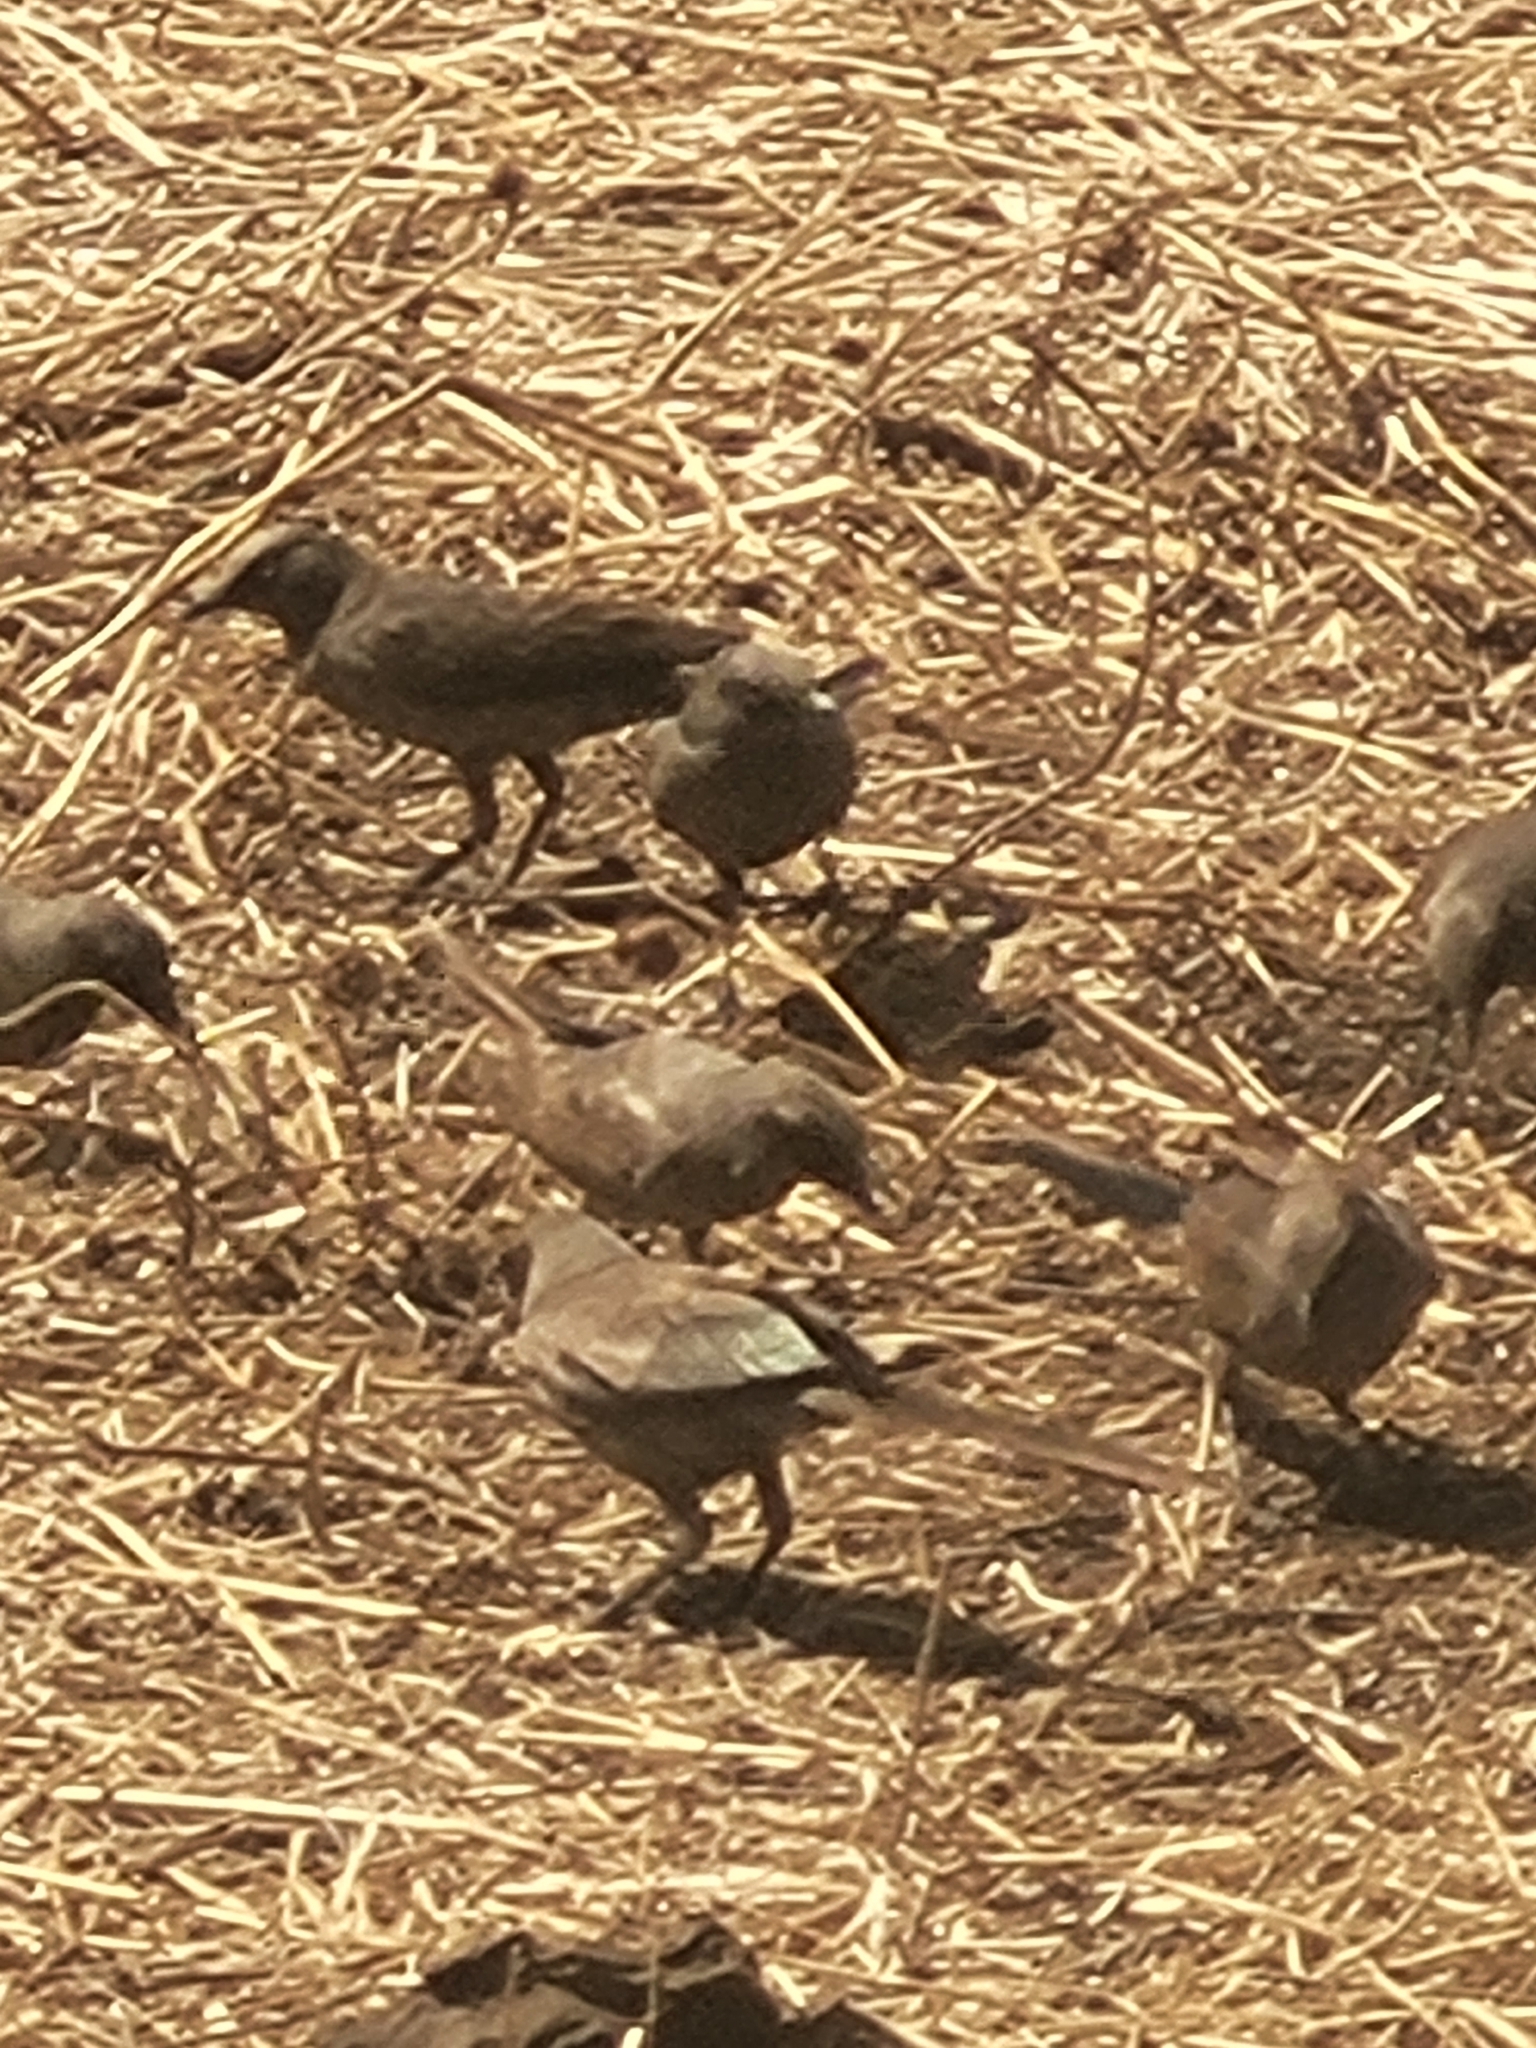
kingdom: Animalia
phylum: Chordata
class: Aves
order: Passeriformes
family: Sturnidae
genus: Lamprotornis
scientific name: Lamprotornis unicolor
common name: Ashy starling
